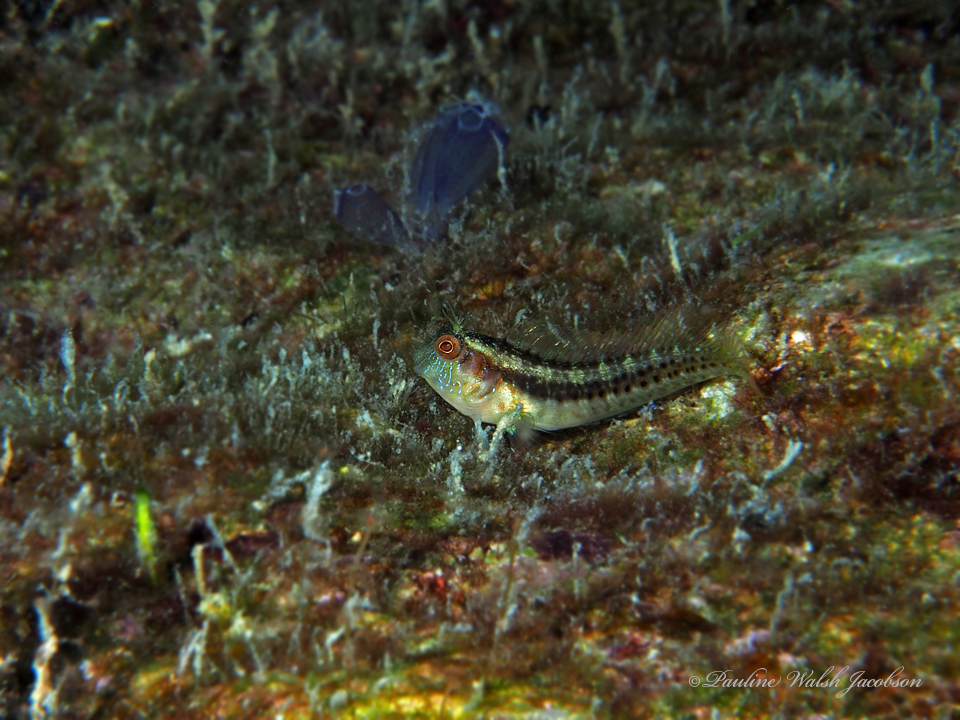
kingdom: Animalia
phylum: Chordata
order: Perciformes
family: Blenniidae
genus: Parablennius
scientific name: Parablennius marmoreus
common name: Seaweed blenny
